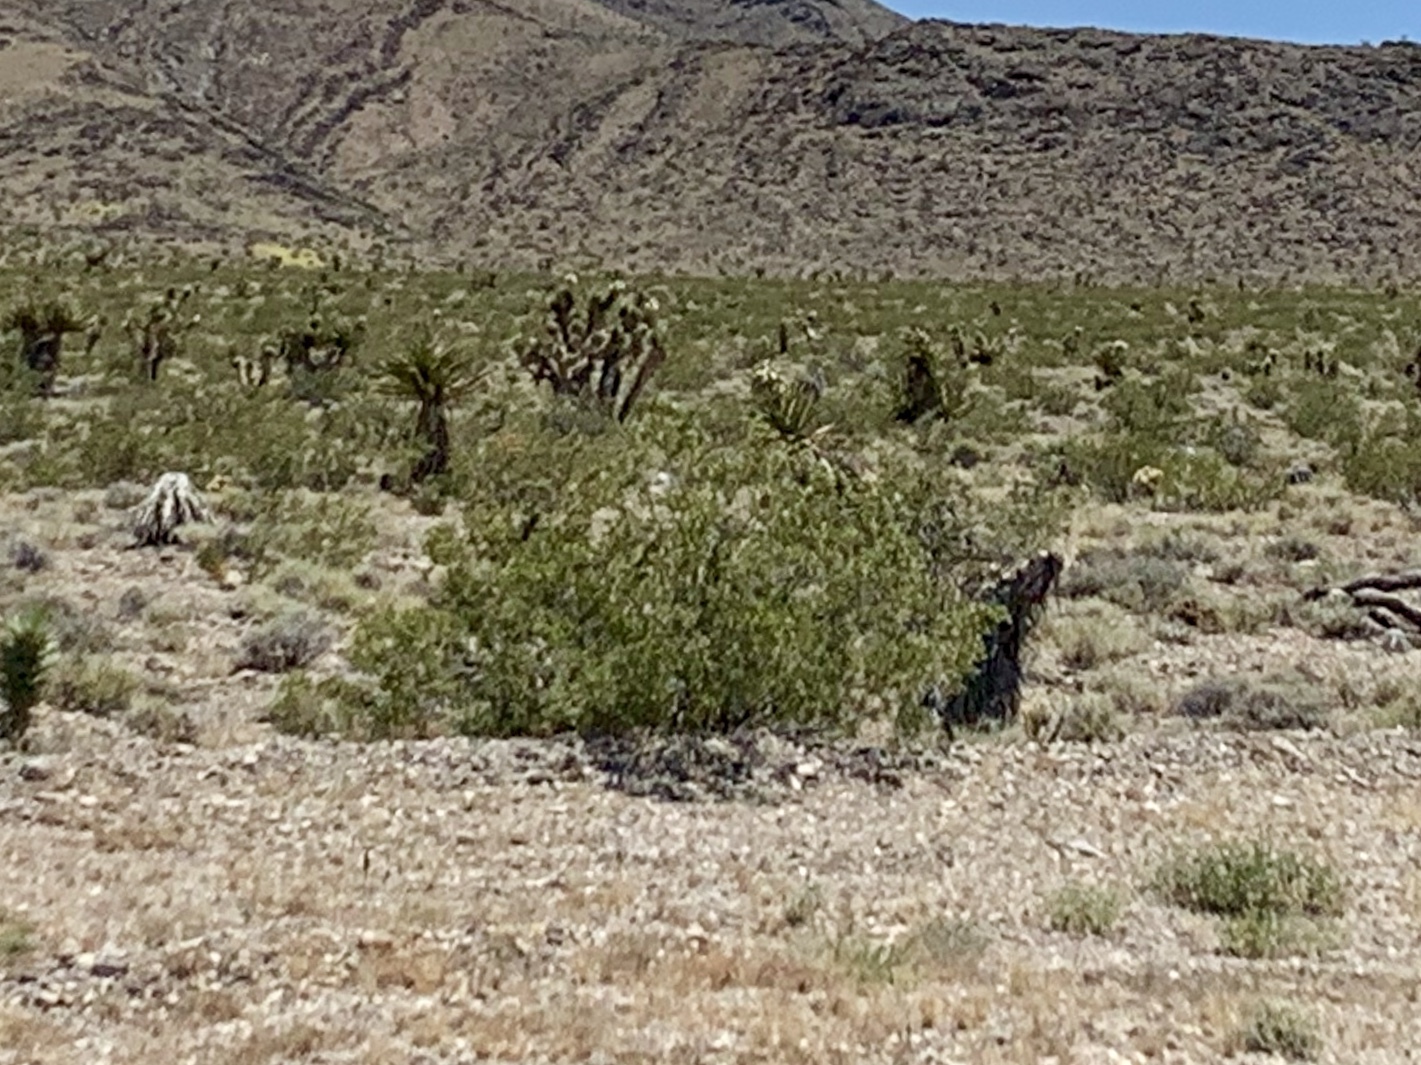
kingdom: Plantae
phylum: Tracheophyta
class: Magnoliopsida
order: Zygophyllales
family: Zygophyllaceae
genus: Larrea
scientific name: Larrea tridentata
